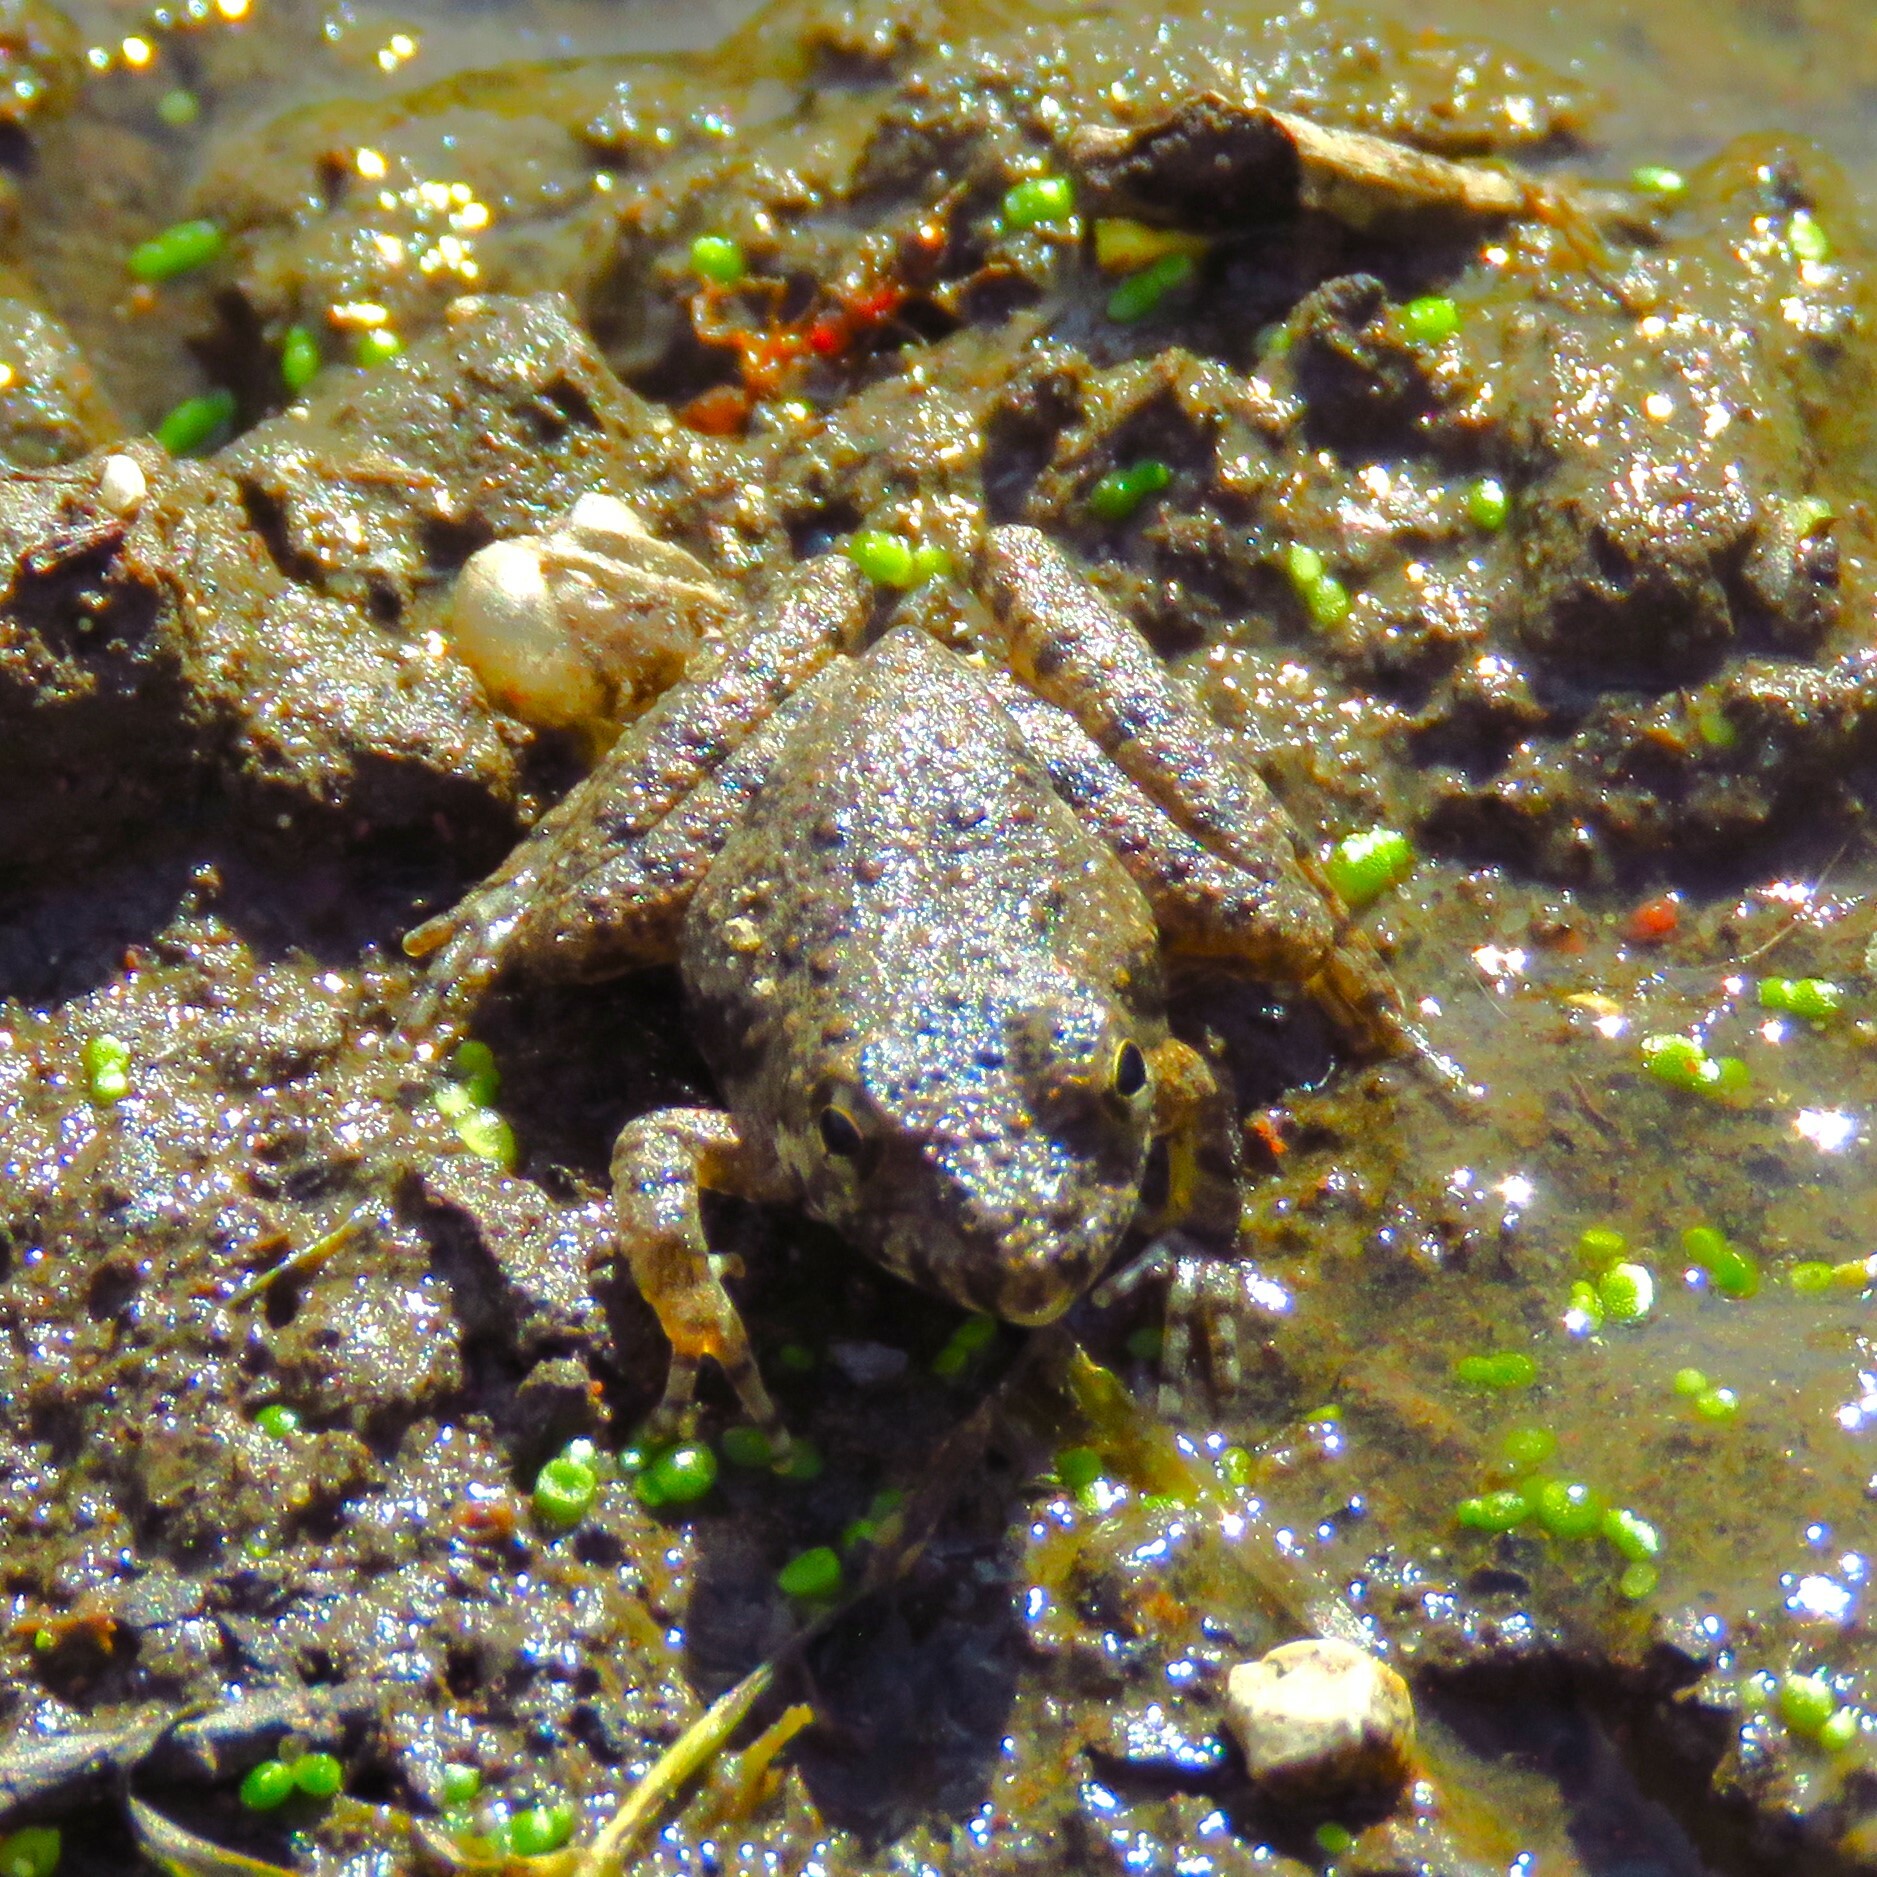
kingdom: Animalia
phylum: Chordata
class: Amphibia
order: Anura
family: Hylidae
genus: Acris
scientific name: Acris blanchardi
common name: Blanchard's cricket frog
